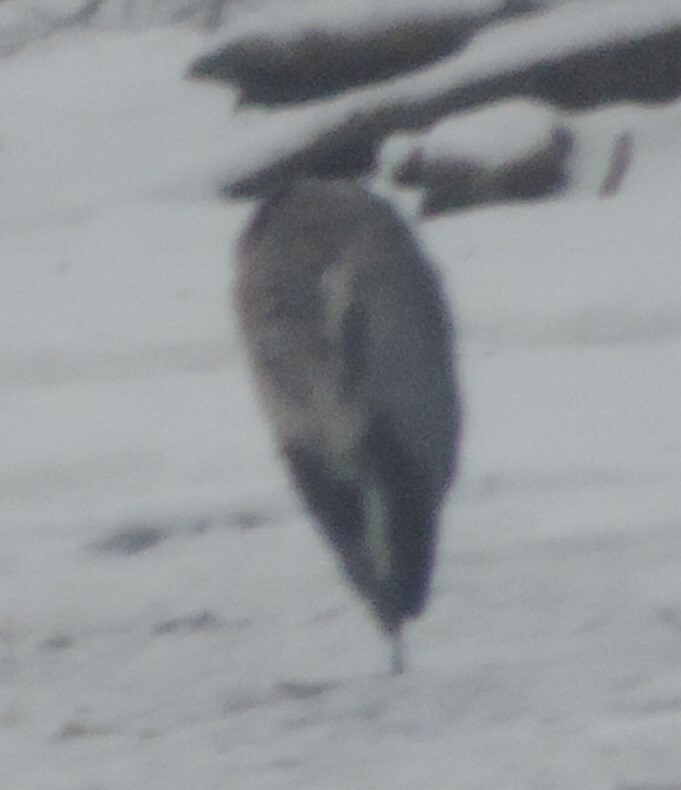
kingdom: Animalia
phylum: Chordata
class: Aves
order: Pelecaniformes
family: Ardeidae
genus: Ardea
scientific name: Ardea herodias
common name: Great blue heron
